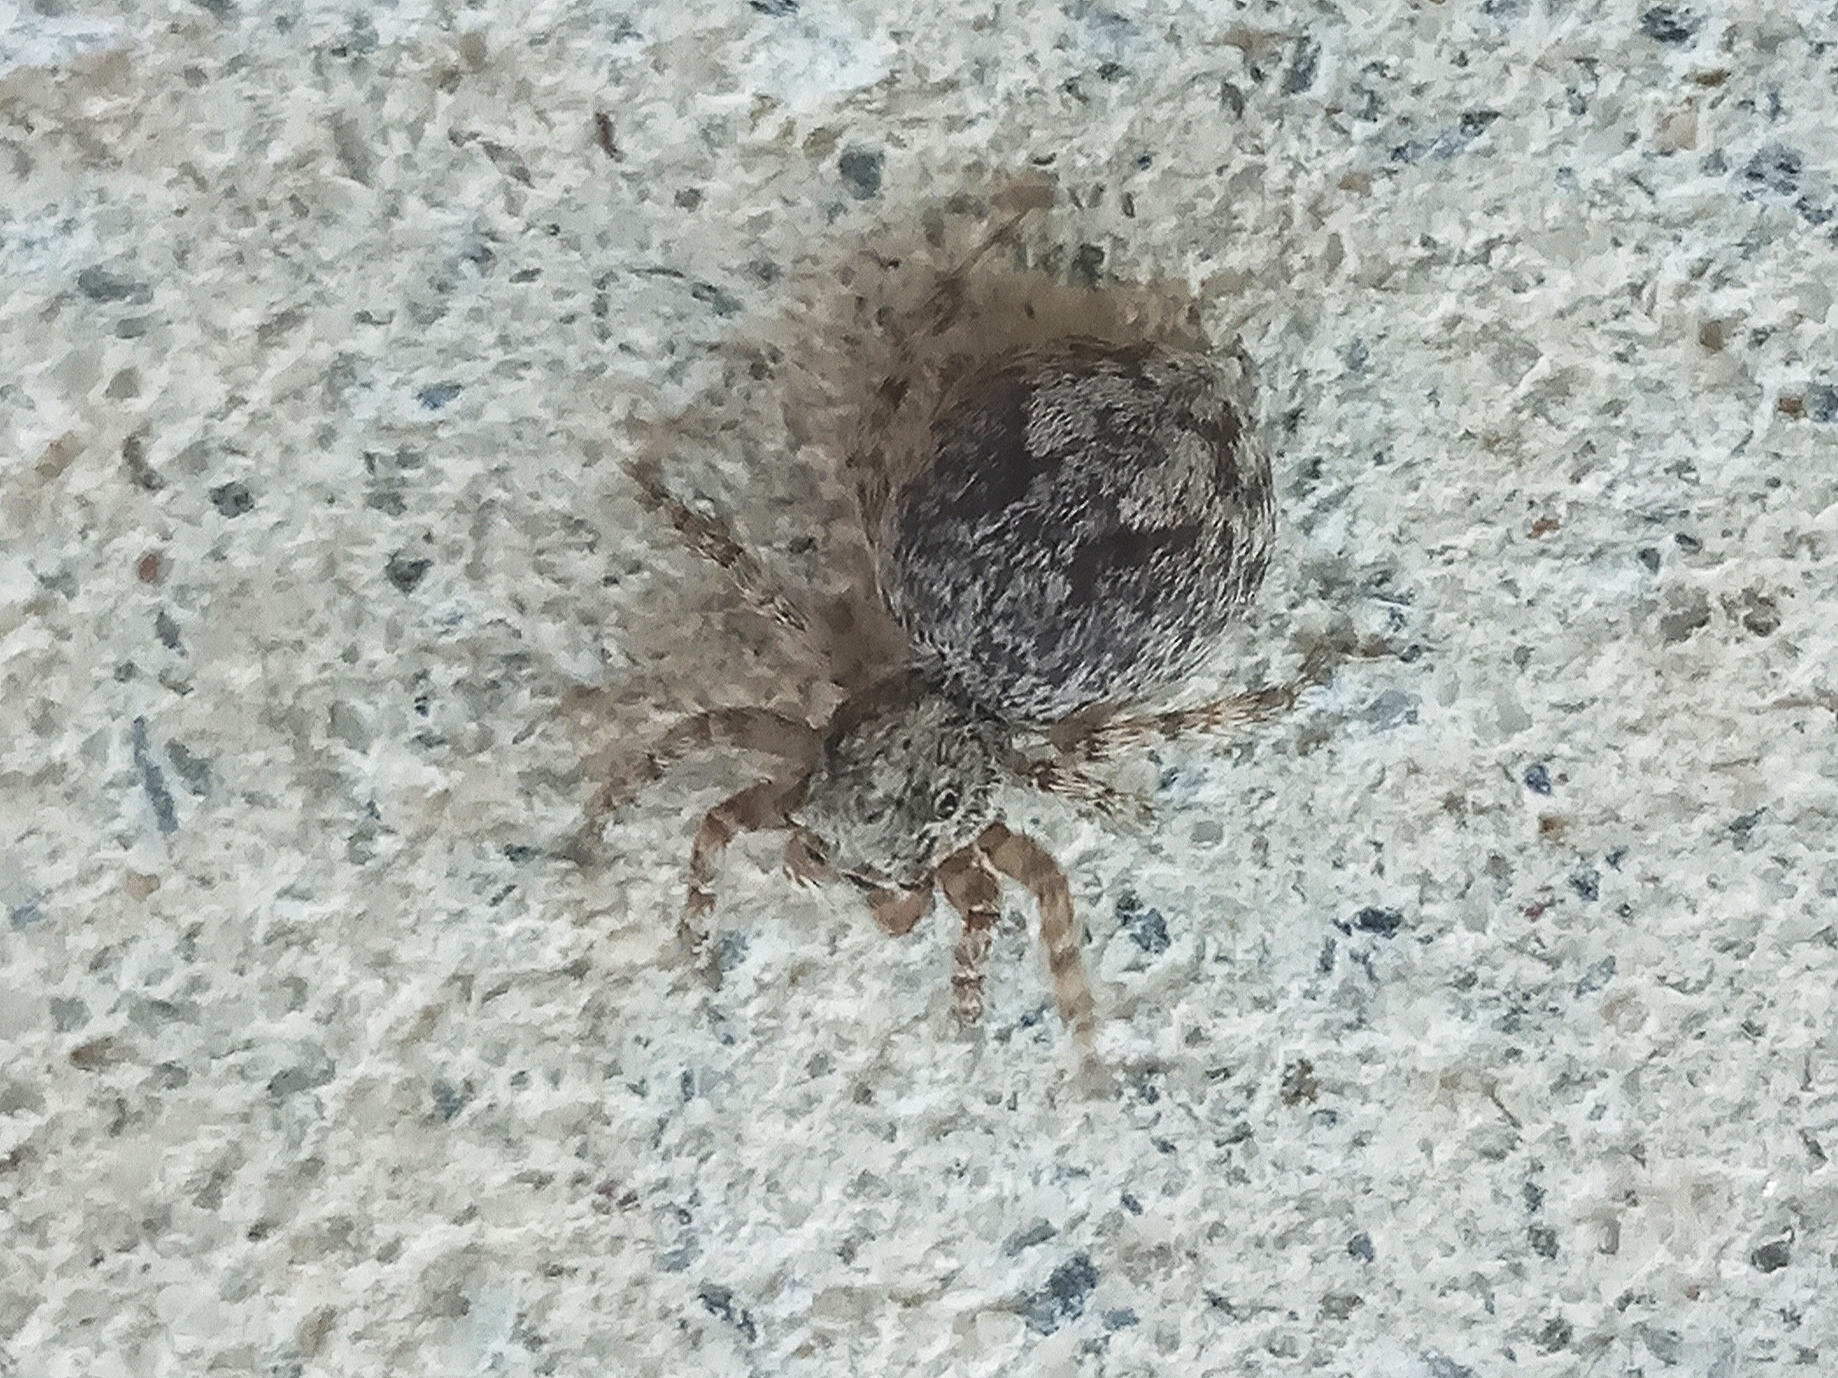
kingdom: Animalia
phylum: Arthropoda
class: Arachnida
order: Araneae
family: Salticidae
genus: Attulus
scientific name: Attulus relictarius
